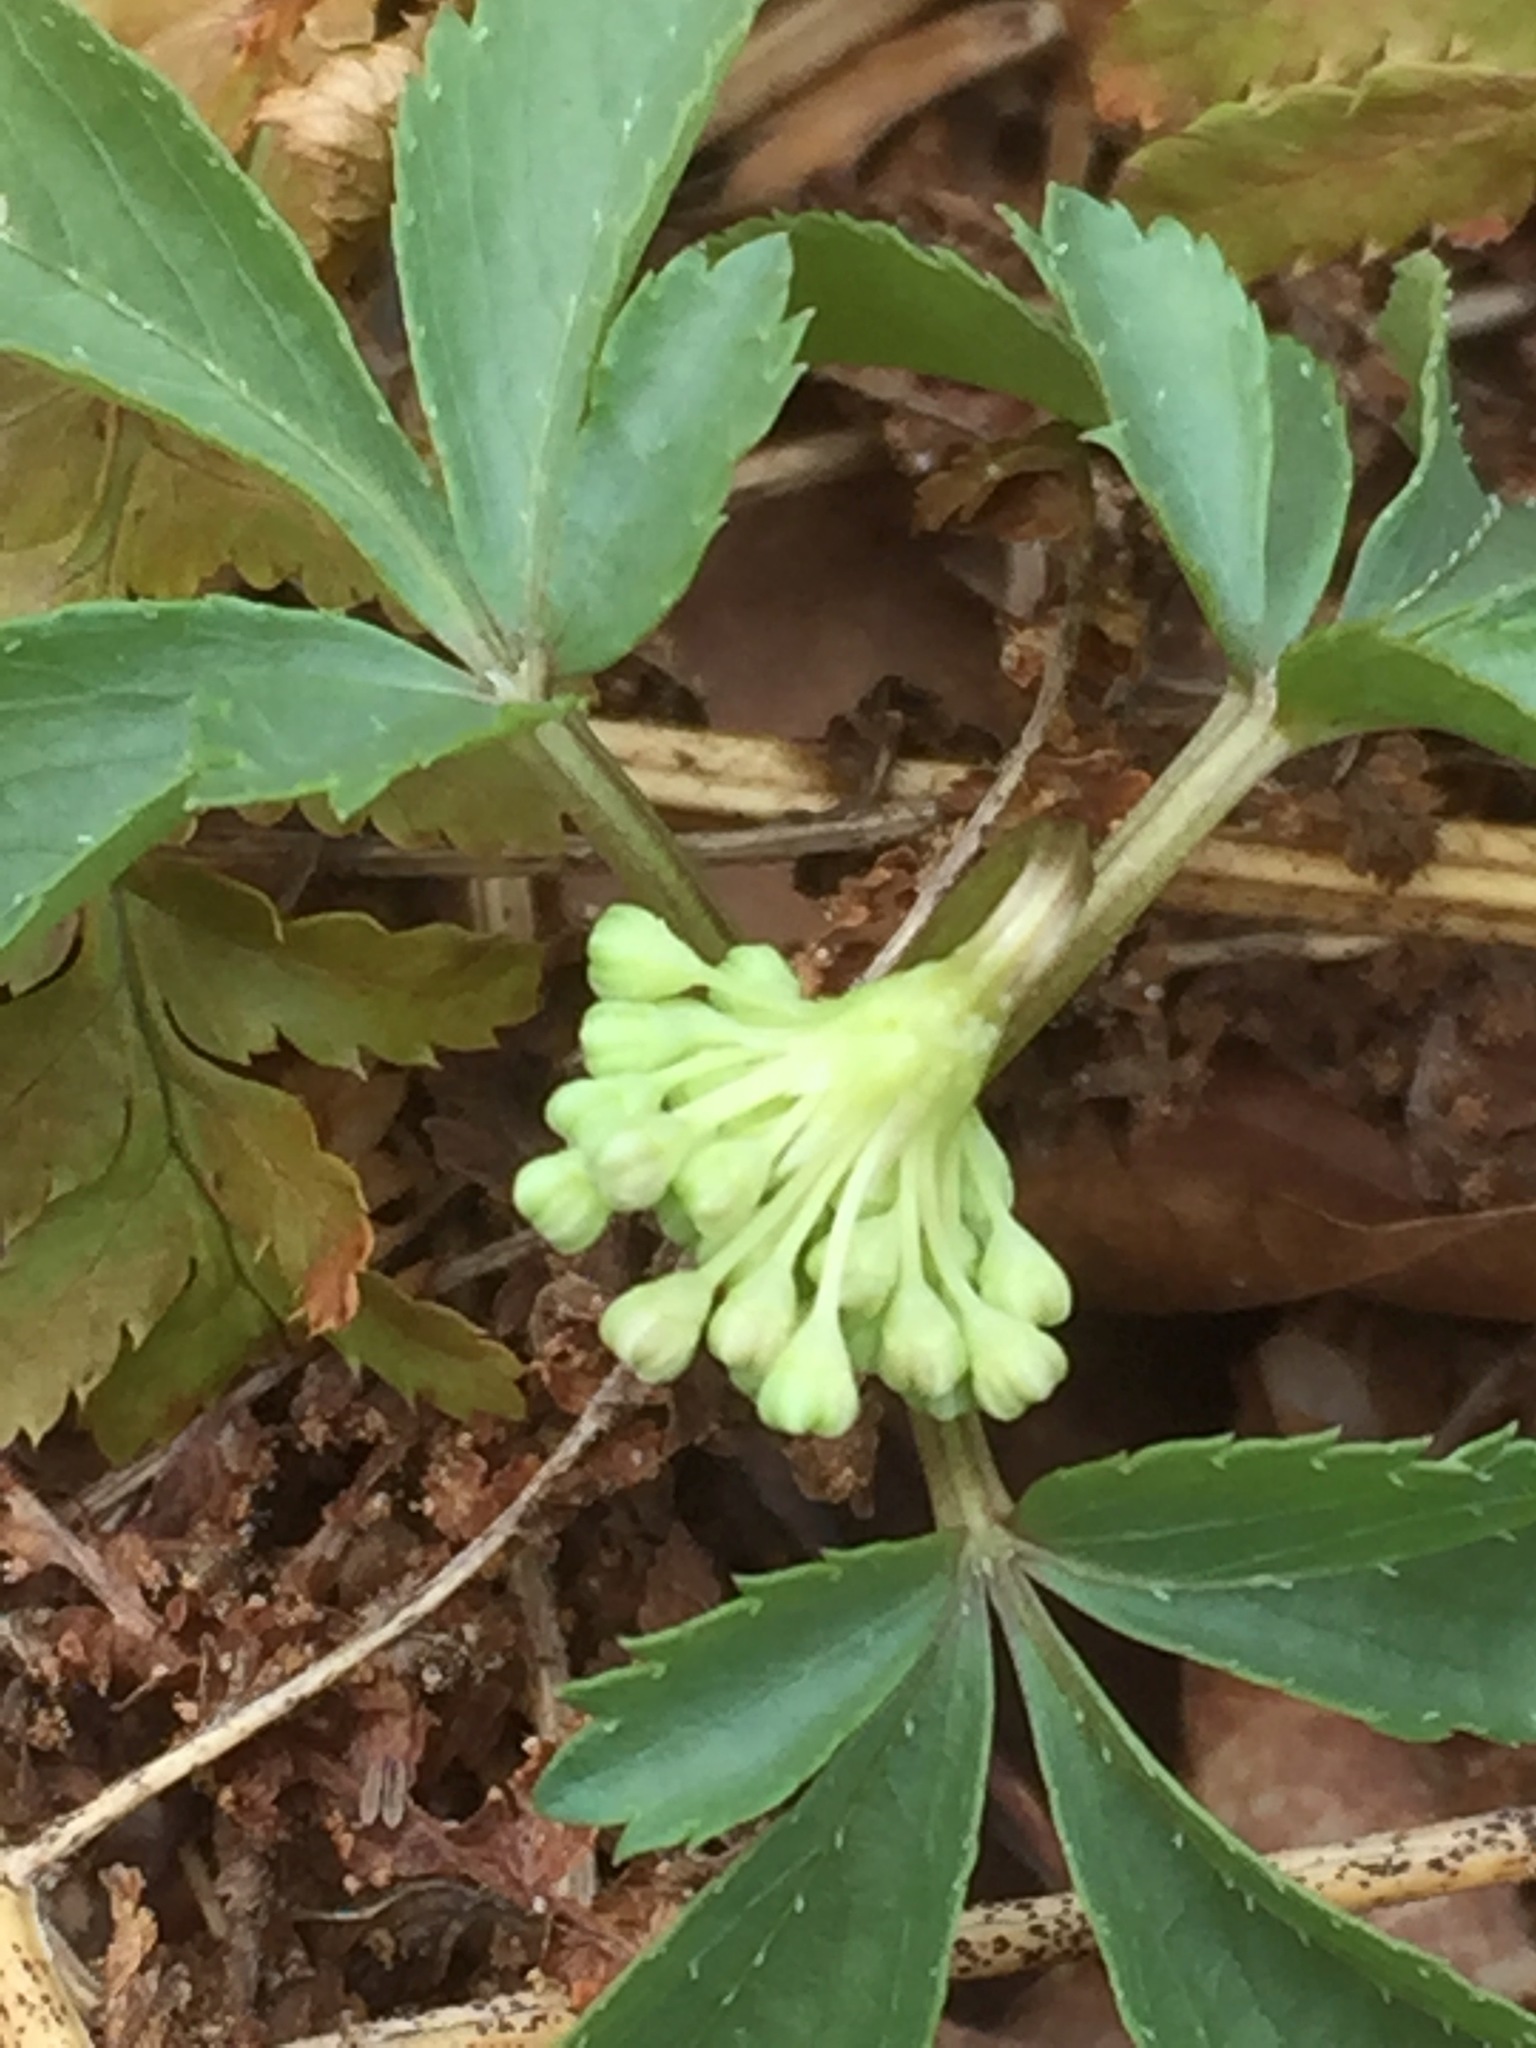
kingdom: Plantae
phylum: Tracheophyta
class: Magnoliopsida
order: Apiales
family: Araliaceae
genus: Panax
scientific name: Panax trifolius
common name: Dwarf ginseng
